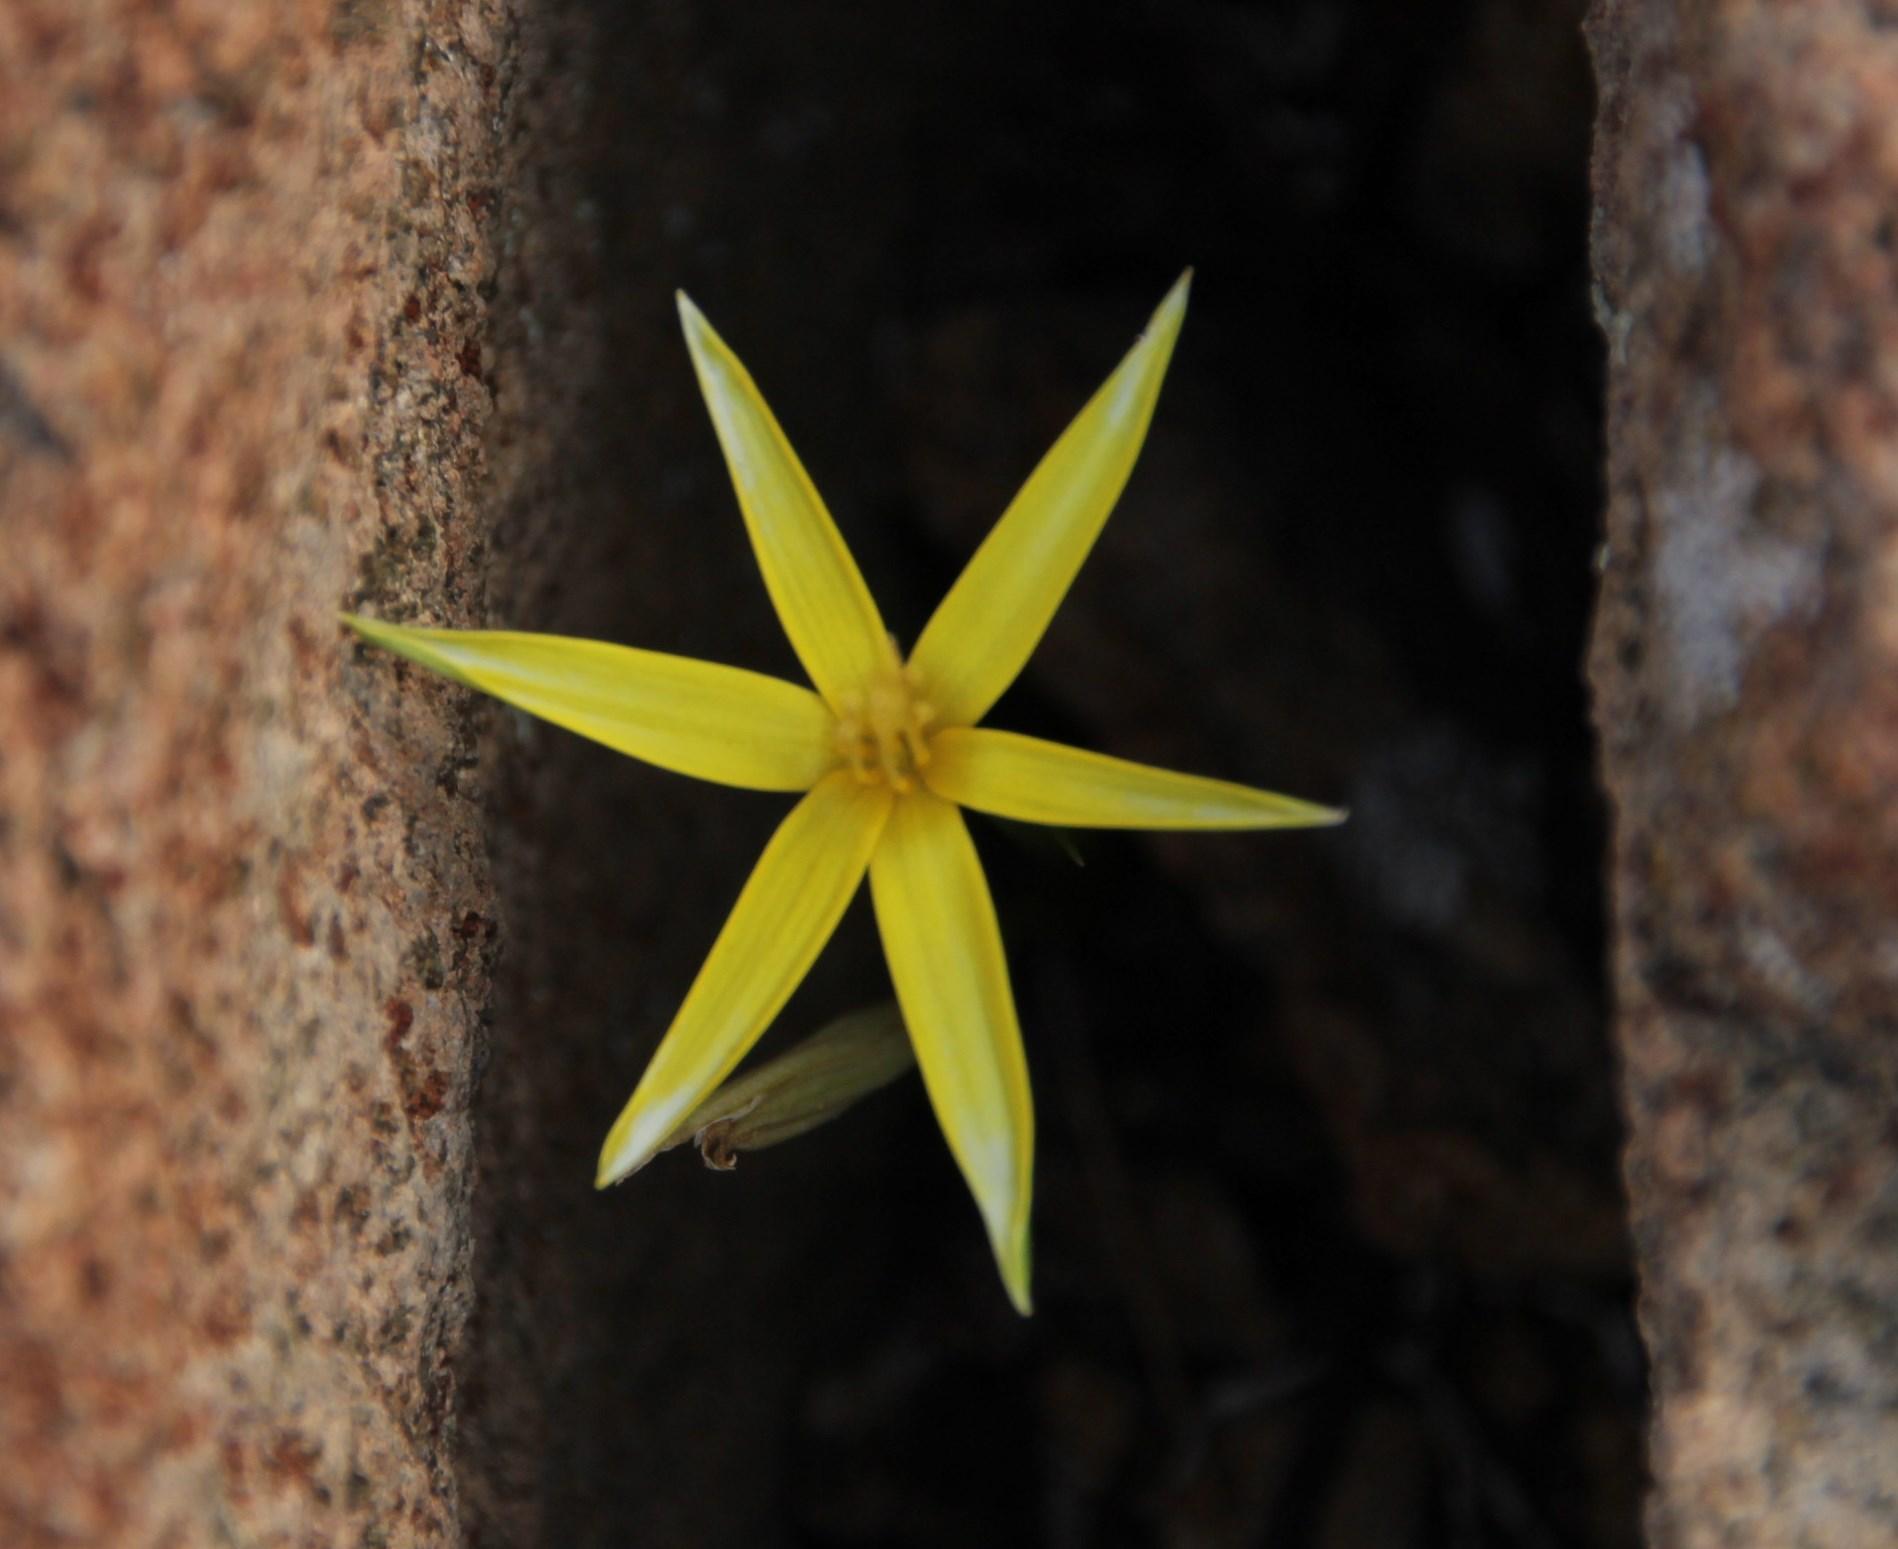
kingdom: Plantae
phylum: Tracheophyta
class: Liliopsida
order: Asparagales
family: Hypoxidaceae
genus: Pauridia
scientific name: Pauridia breviscapa
